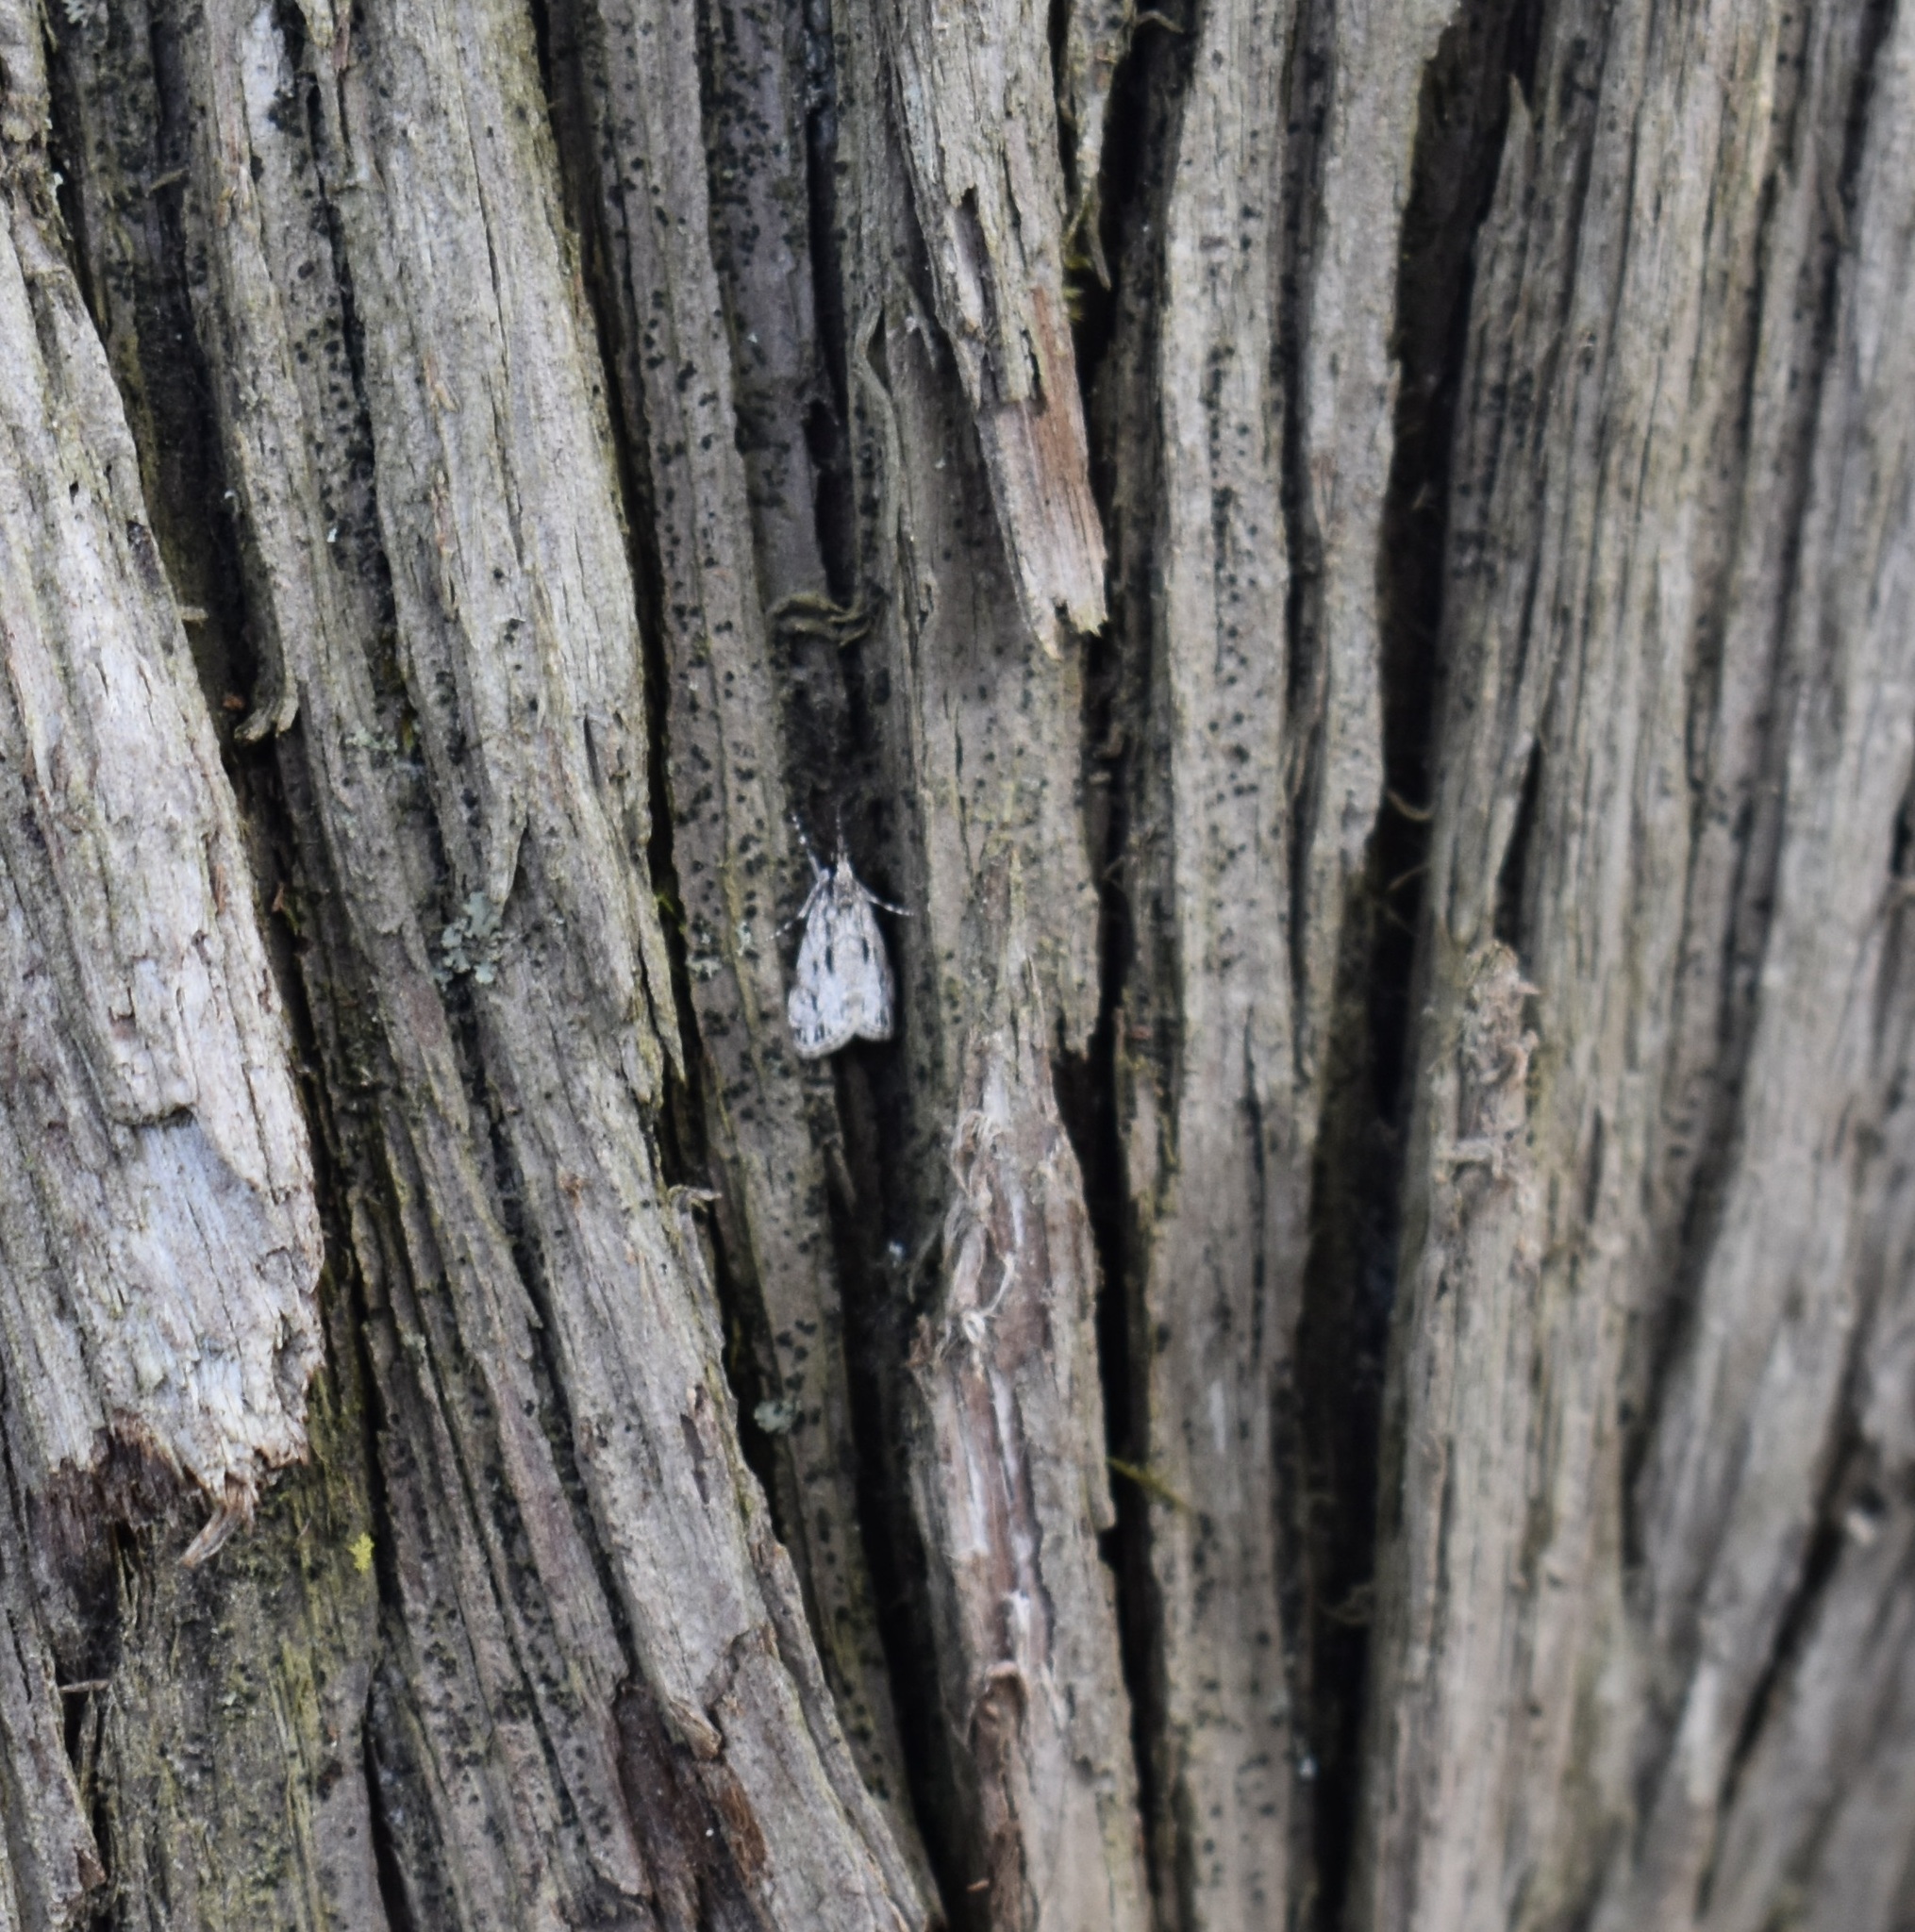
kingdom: Animalia
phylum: Arthropoda
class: Insecta
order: Lepidoptera
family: Crambidae
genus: Eudonia
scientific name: Eudonia strigalis
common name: Striped eudonia moth
